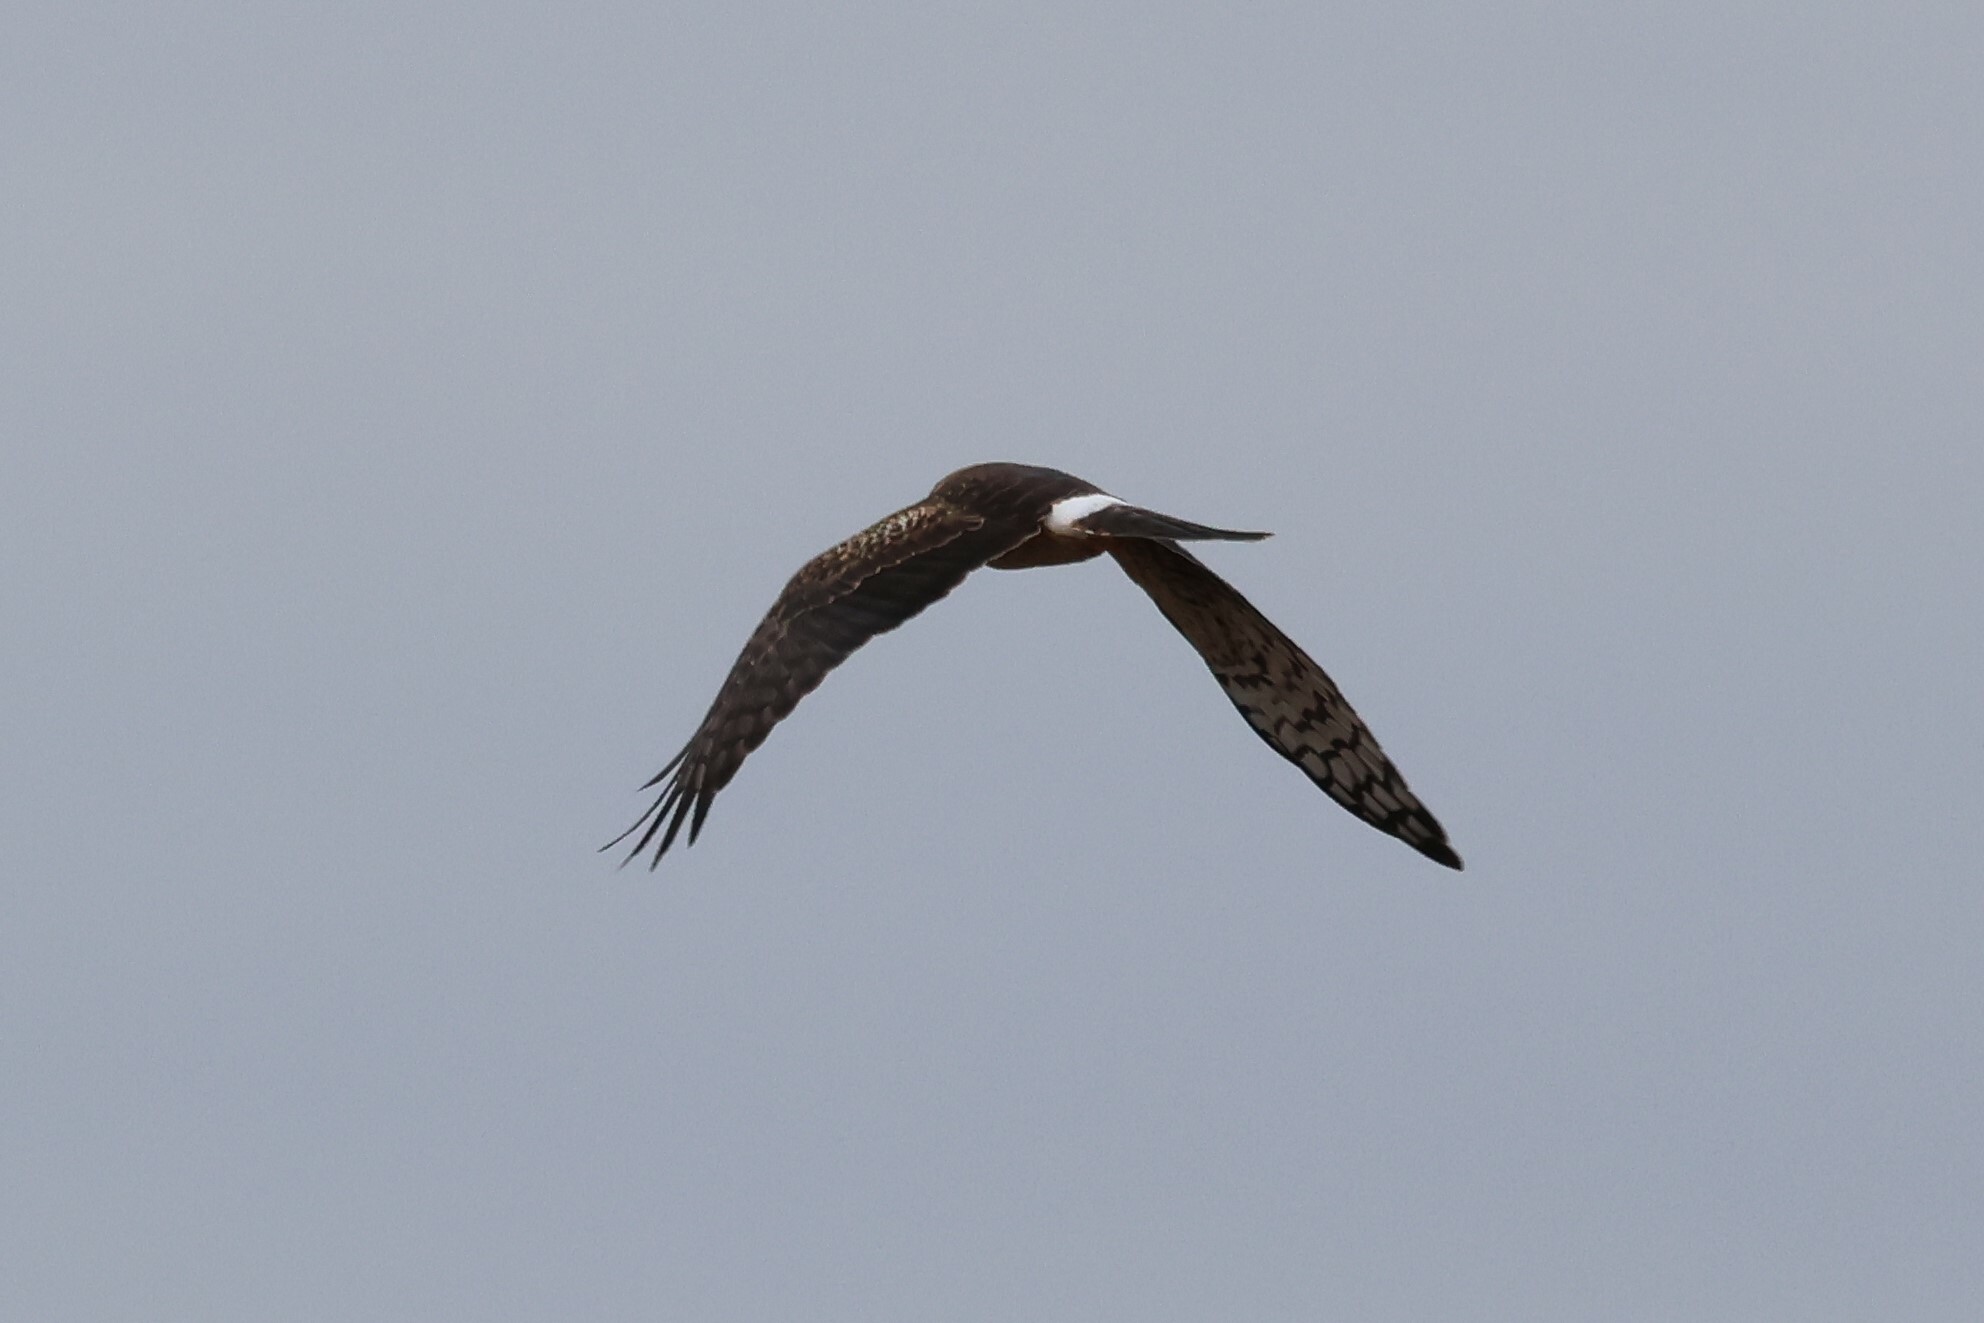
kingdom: Animalia
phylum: Chordata
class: Aves
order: Accipitriformes
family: Accipitridae
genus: Circus
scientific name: Circus cyaneus
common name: Hen harrier
